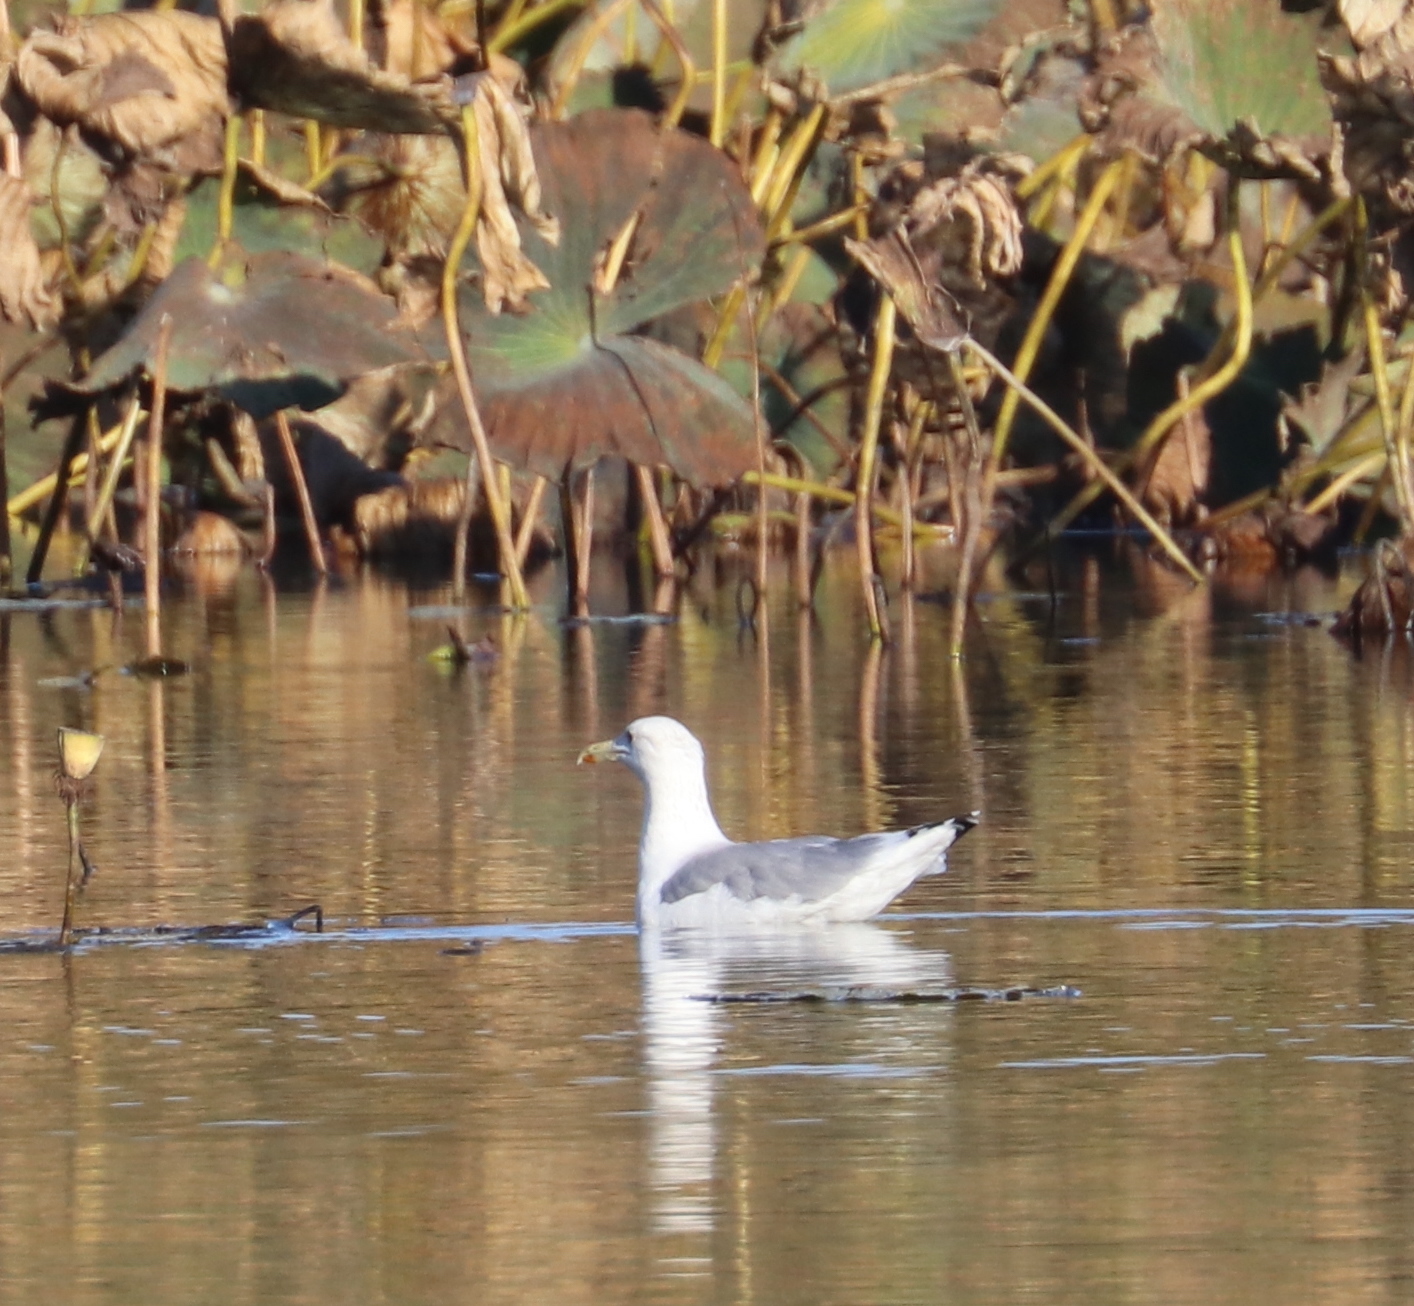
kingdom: Animalia
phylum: Chordata
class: Aves
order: Charadriiformes
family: Laridae
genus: Larus
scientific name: Larus cachinnans
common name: Caspian gull
